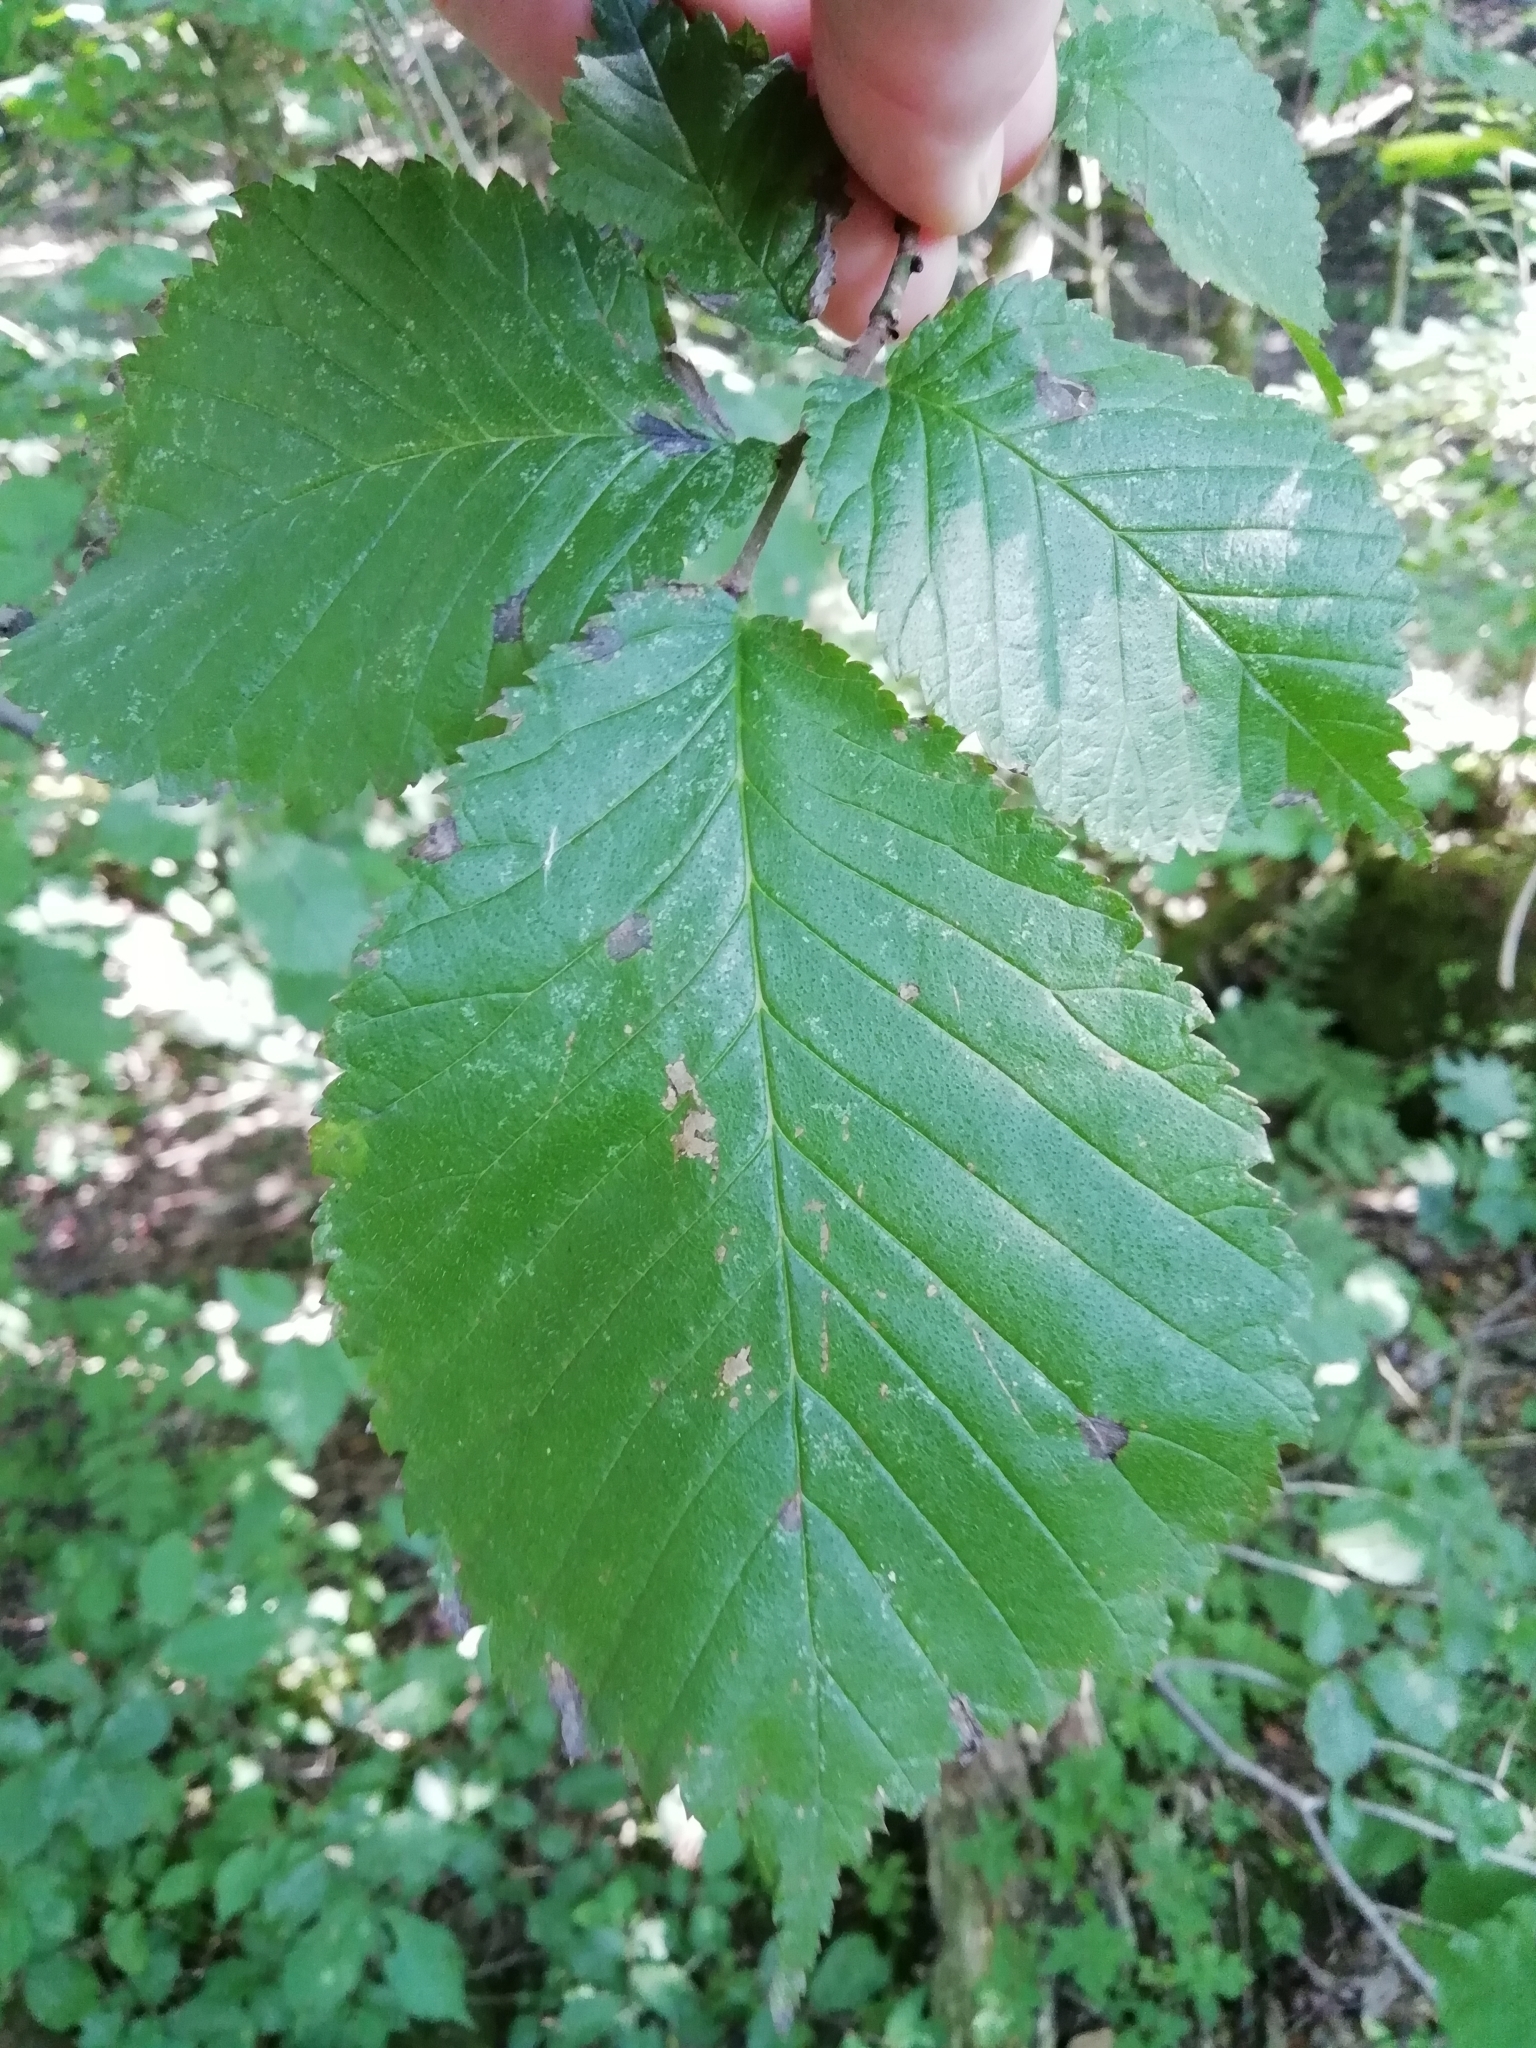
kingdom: Plantae
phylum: Tracheophyta
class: Magnoliopsida
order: Rosales
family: Ulmaceae
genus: Ulmus
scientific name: Ulmus glabra
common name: Wych elm
